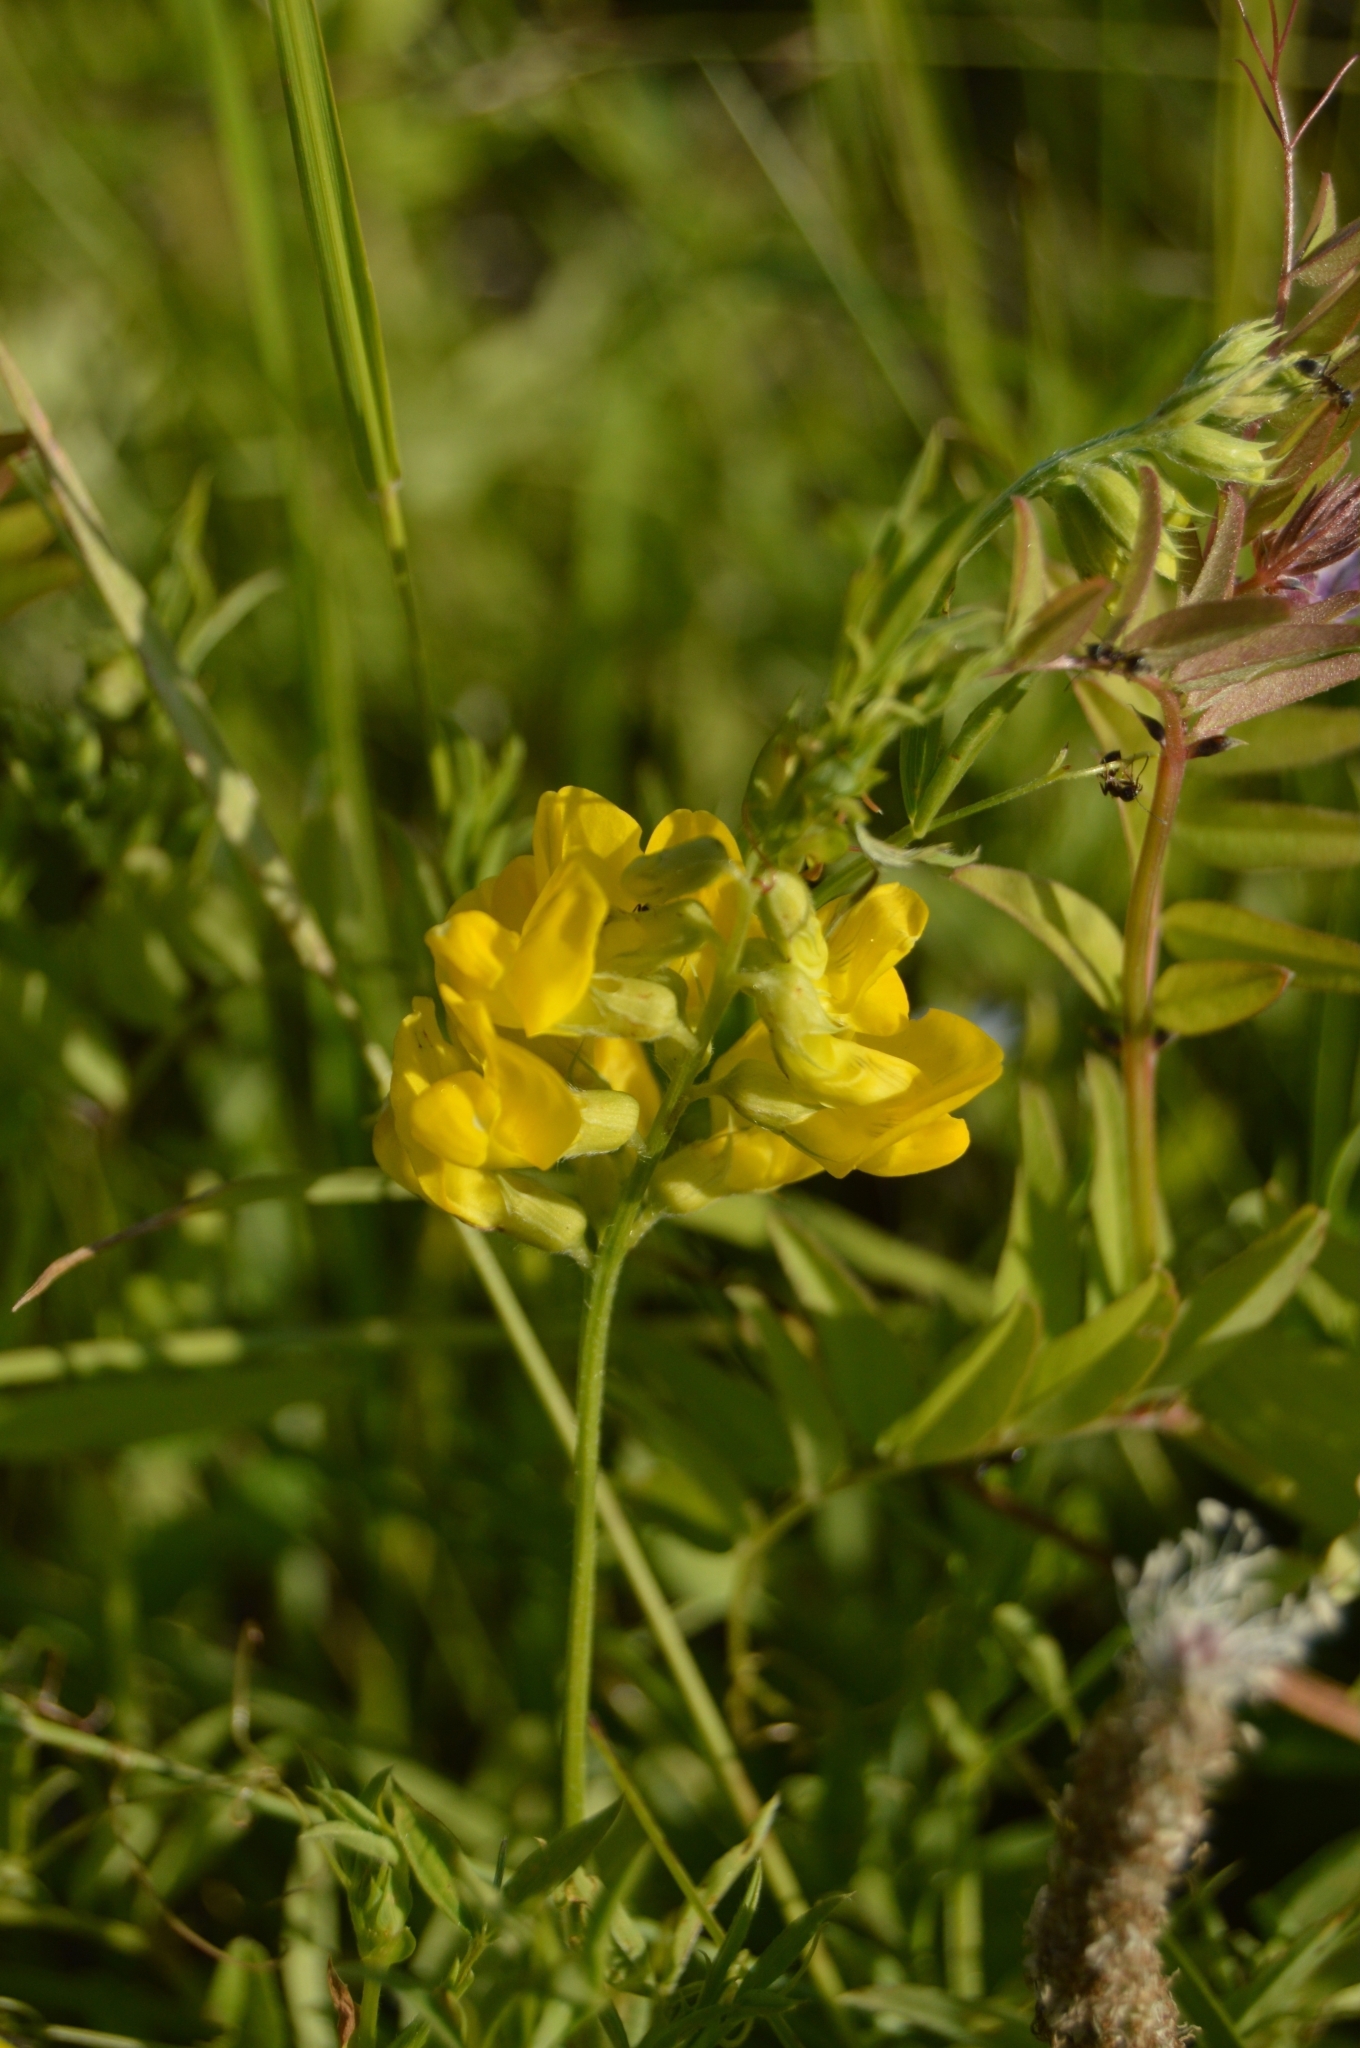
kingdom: Plantae
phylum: Tracheophyta
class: Magnoliopsida
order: Fabales
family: Fabaceae
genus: Lathyrus
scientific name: Lathyrus pratensis
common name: Meadow vetchling
